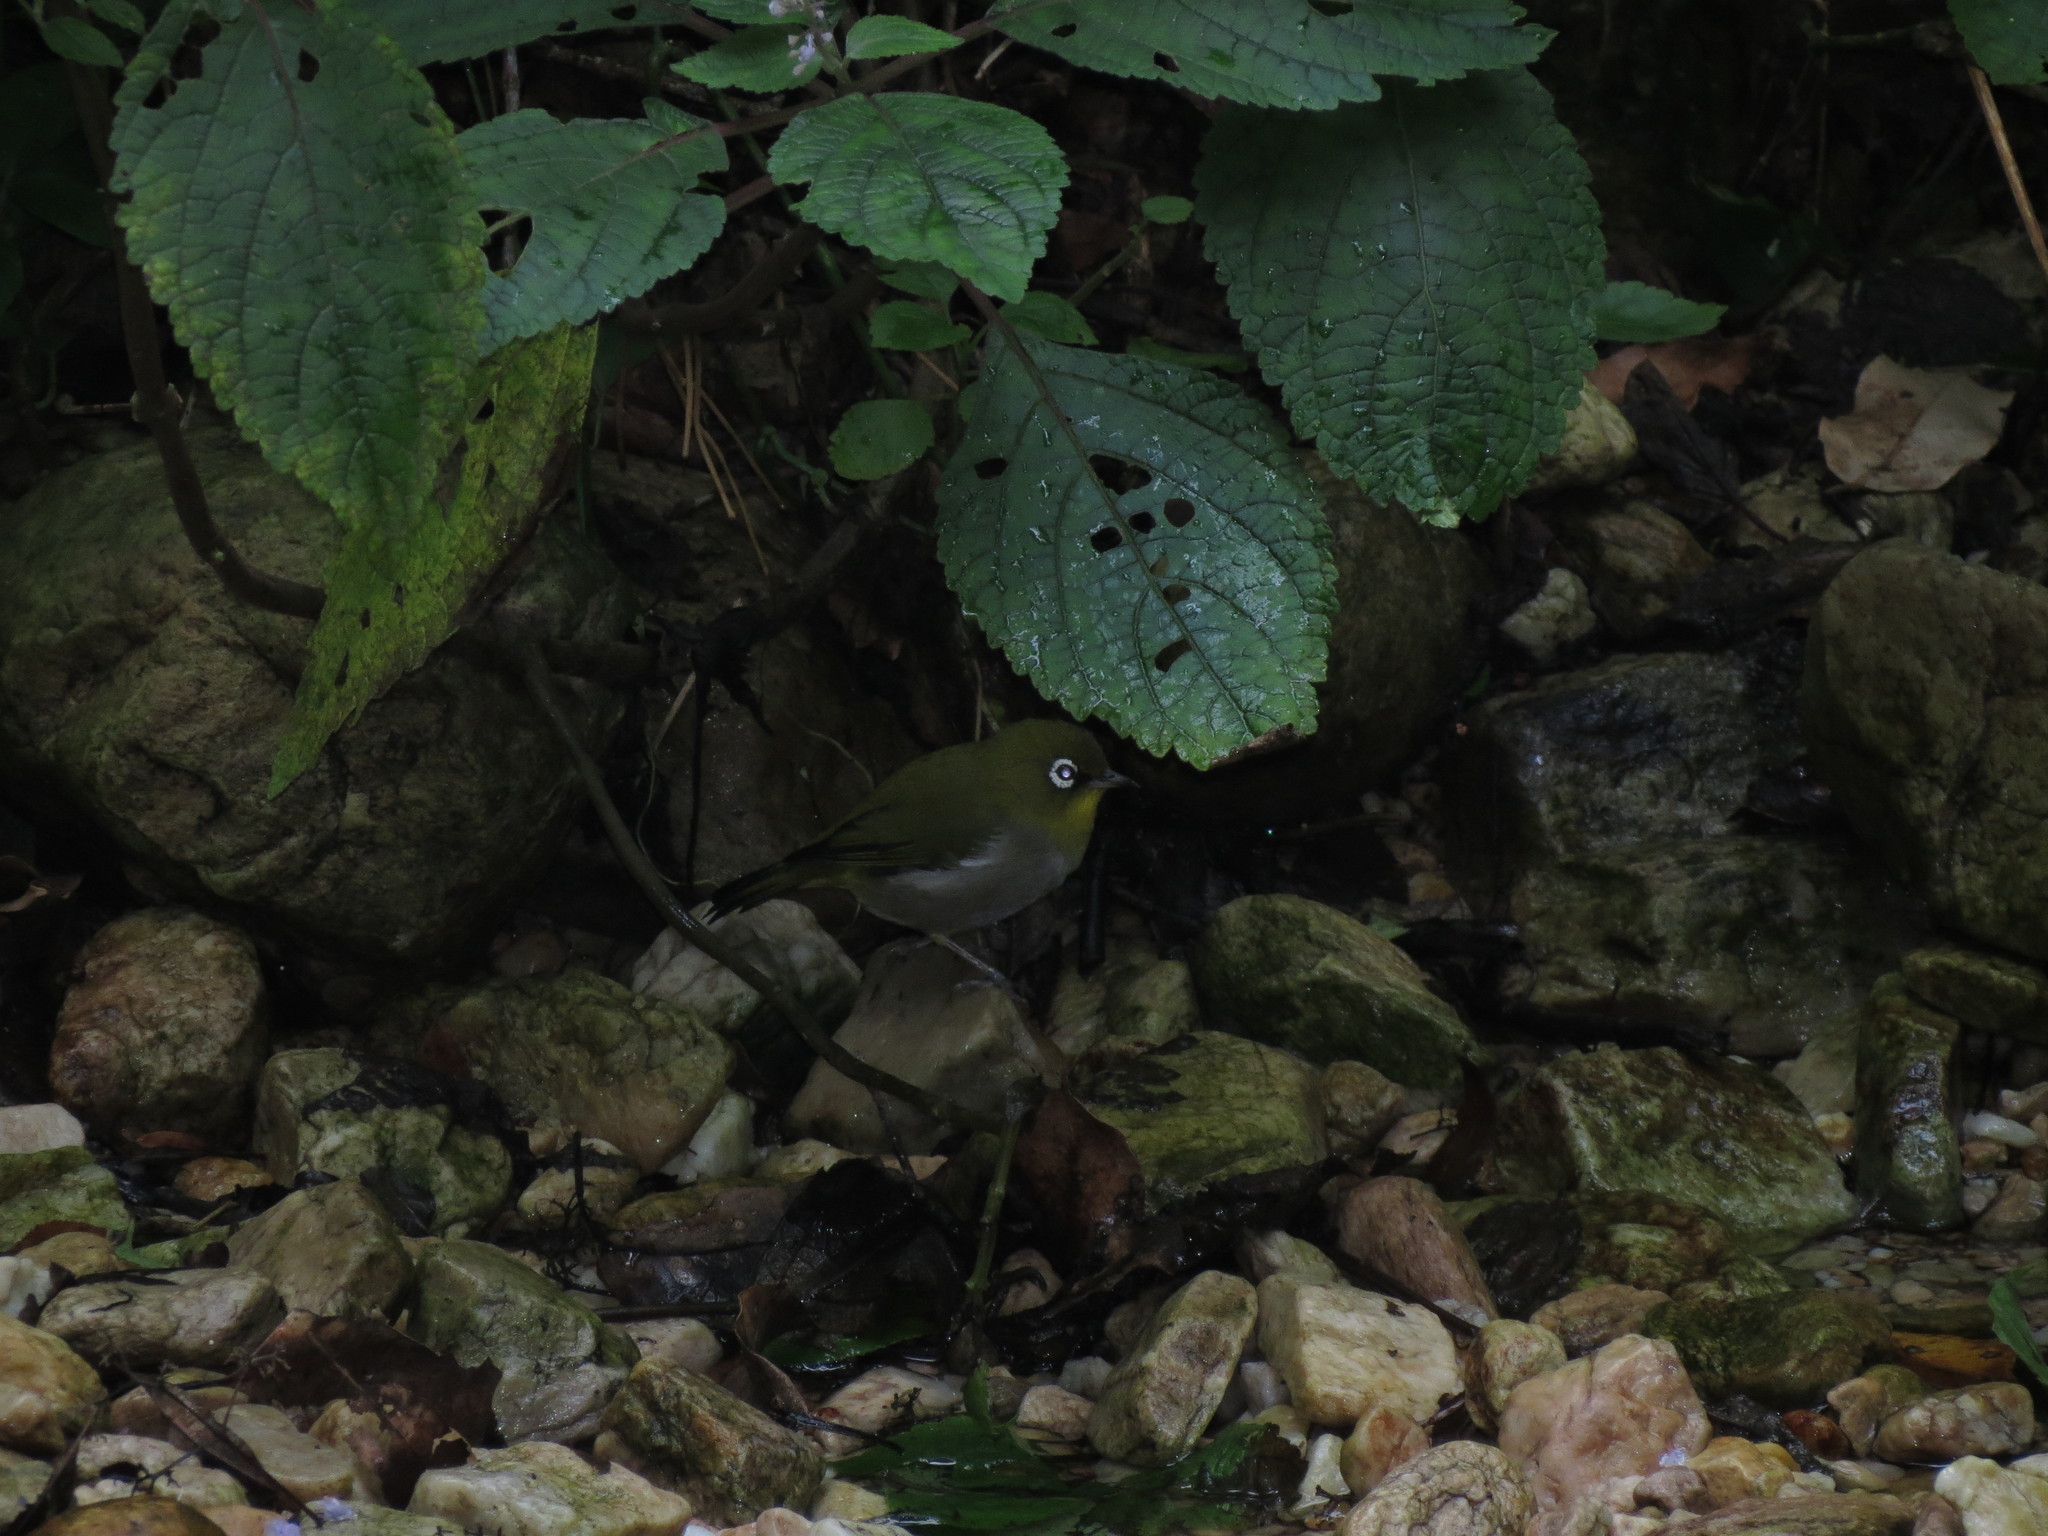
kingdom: Animalia
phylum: Chordata
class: Aves
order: Passeriformes
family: Zosteropidae
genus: Zosterops
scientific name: Zosterops virens
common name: Cape white-eye
